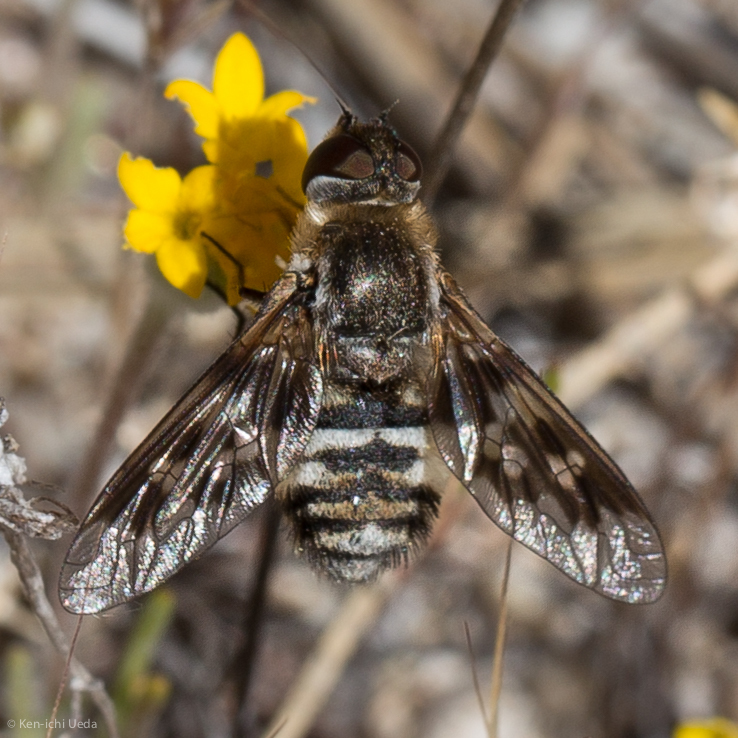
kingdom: Animalia
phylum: Arthropoda
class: Insecta
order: Diptera
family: Bombyliidae
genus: Thyridanthrax
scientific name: Thyridanthrax nugator
